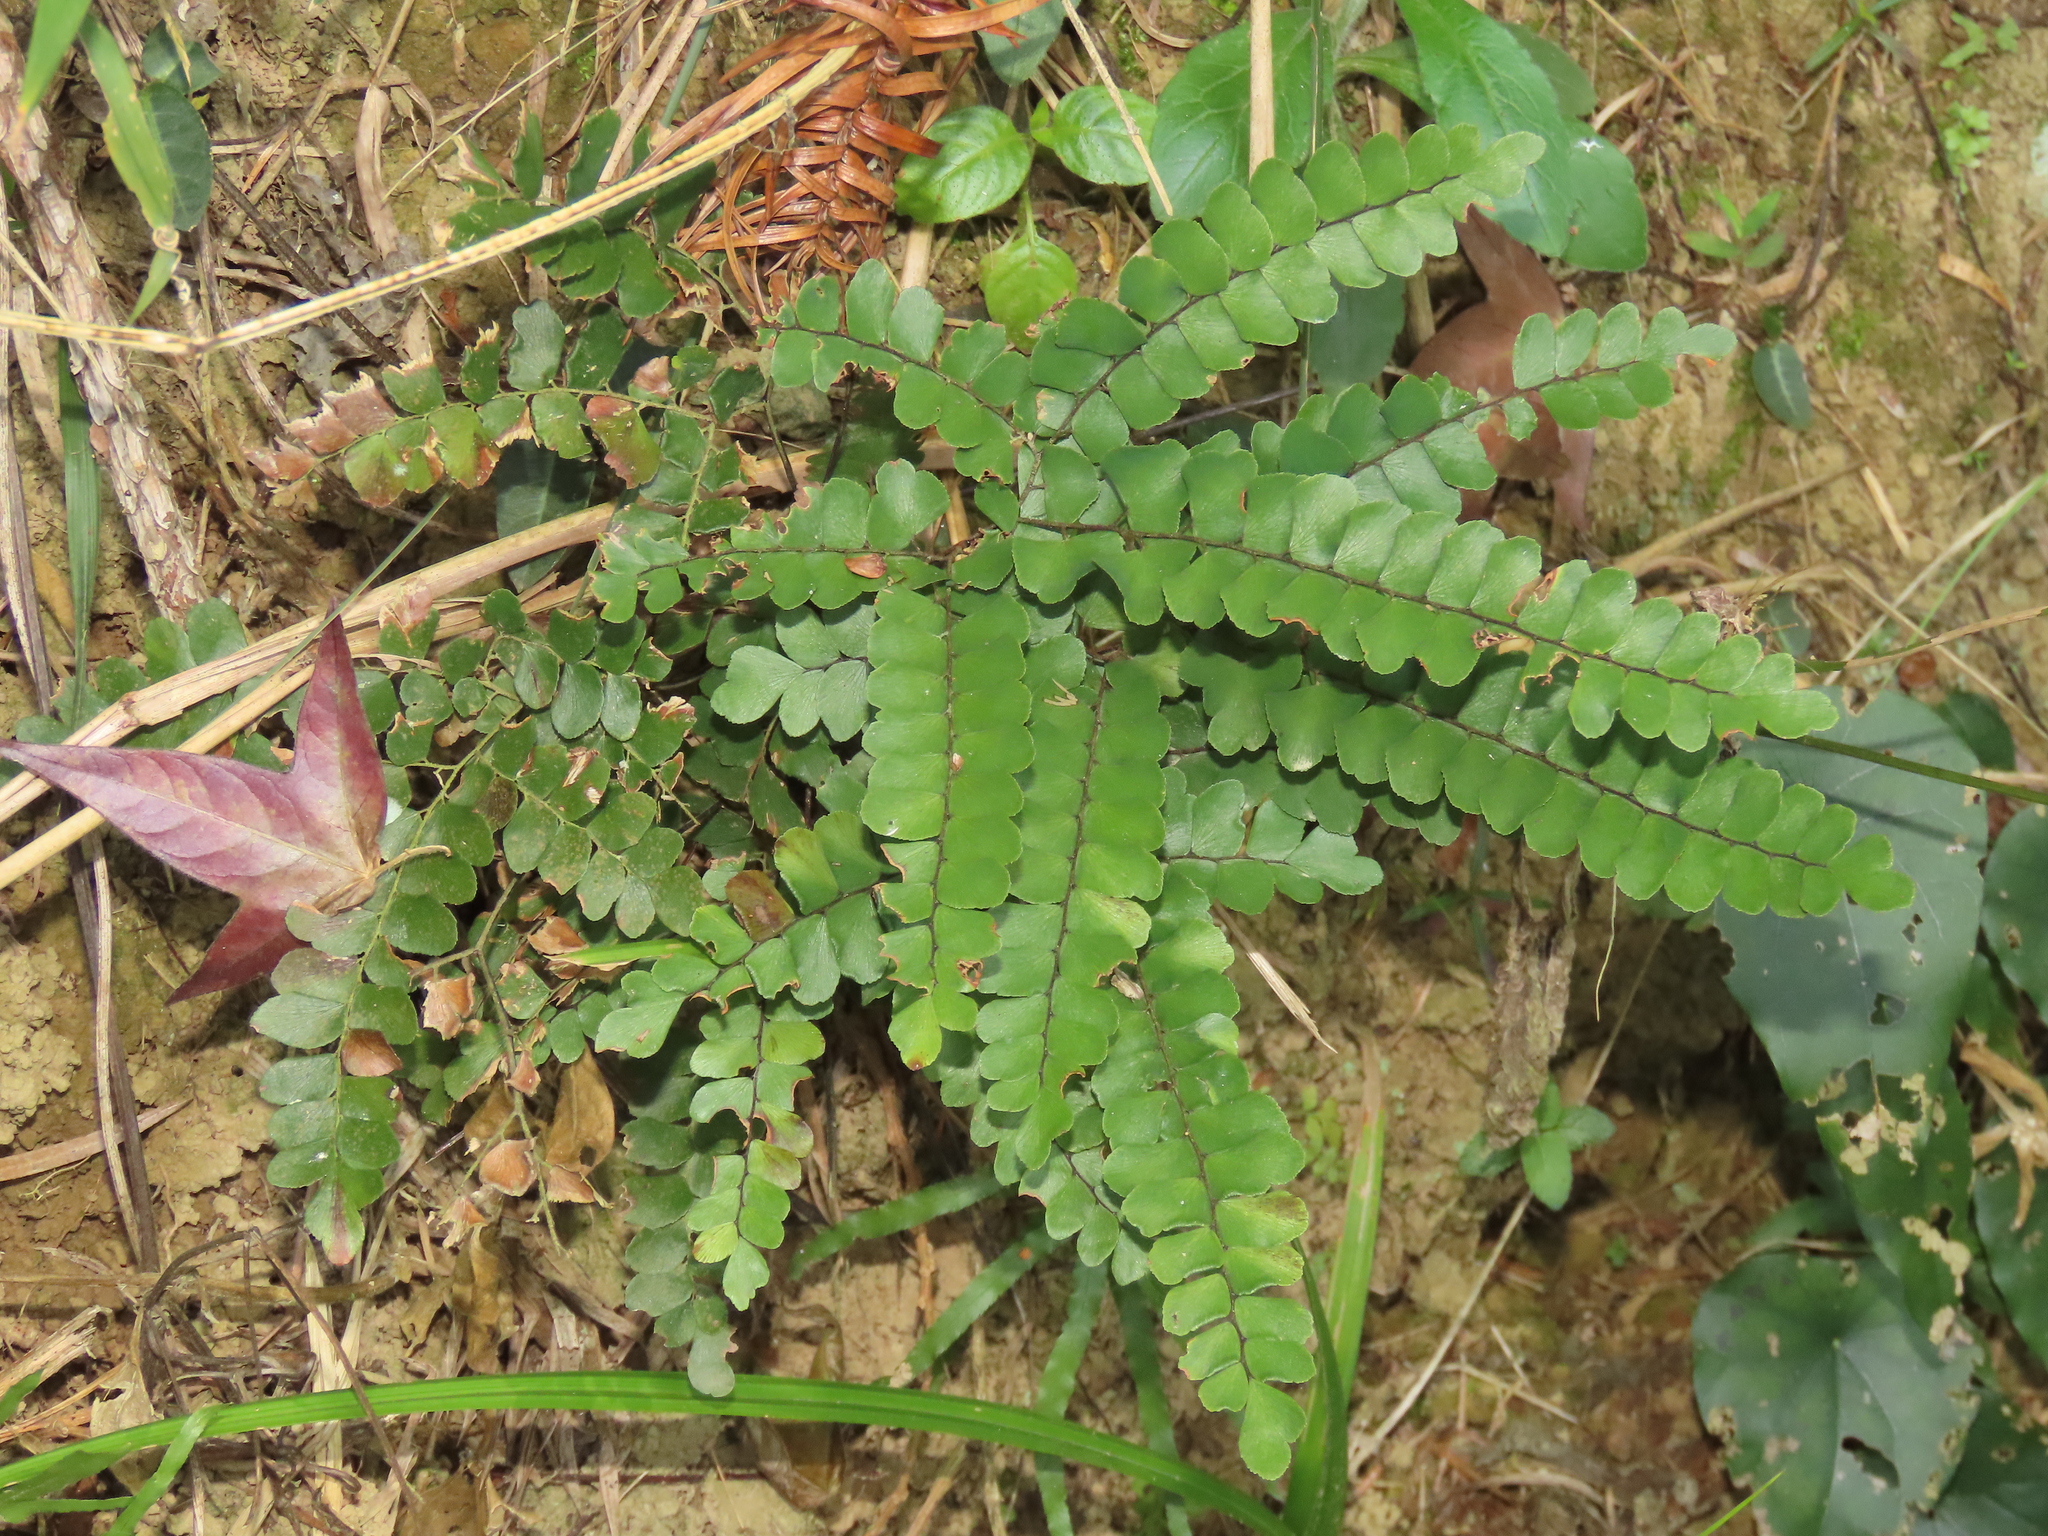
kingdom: Plantae
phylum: Tracheophyta
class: Polypodiopsida
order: Polypodiales
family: Pteridaceae
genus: Adiantum
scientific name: Adiantum flabellulatum
